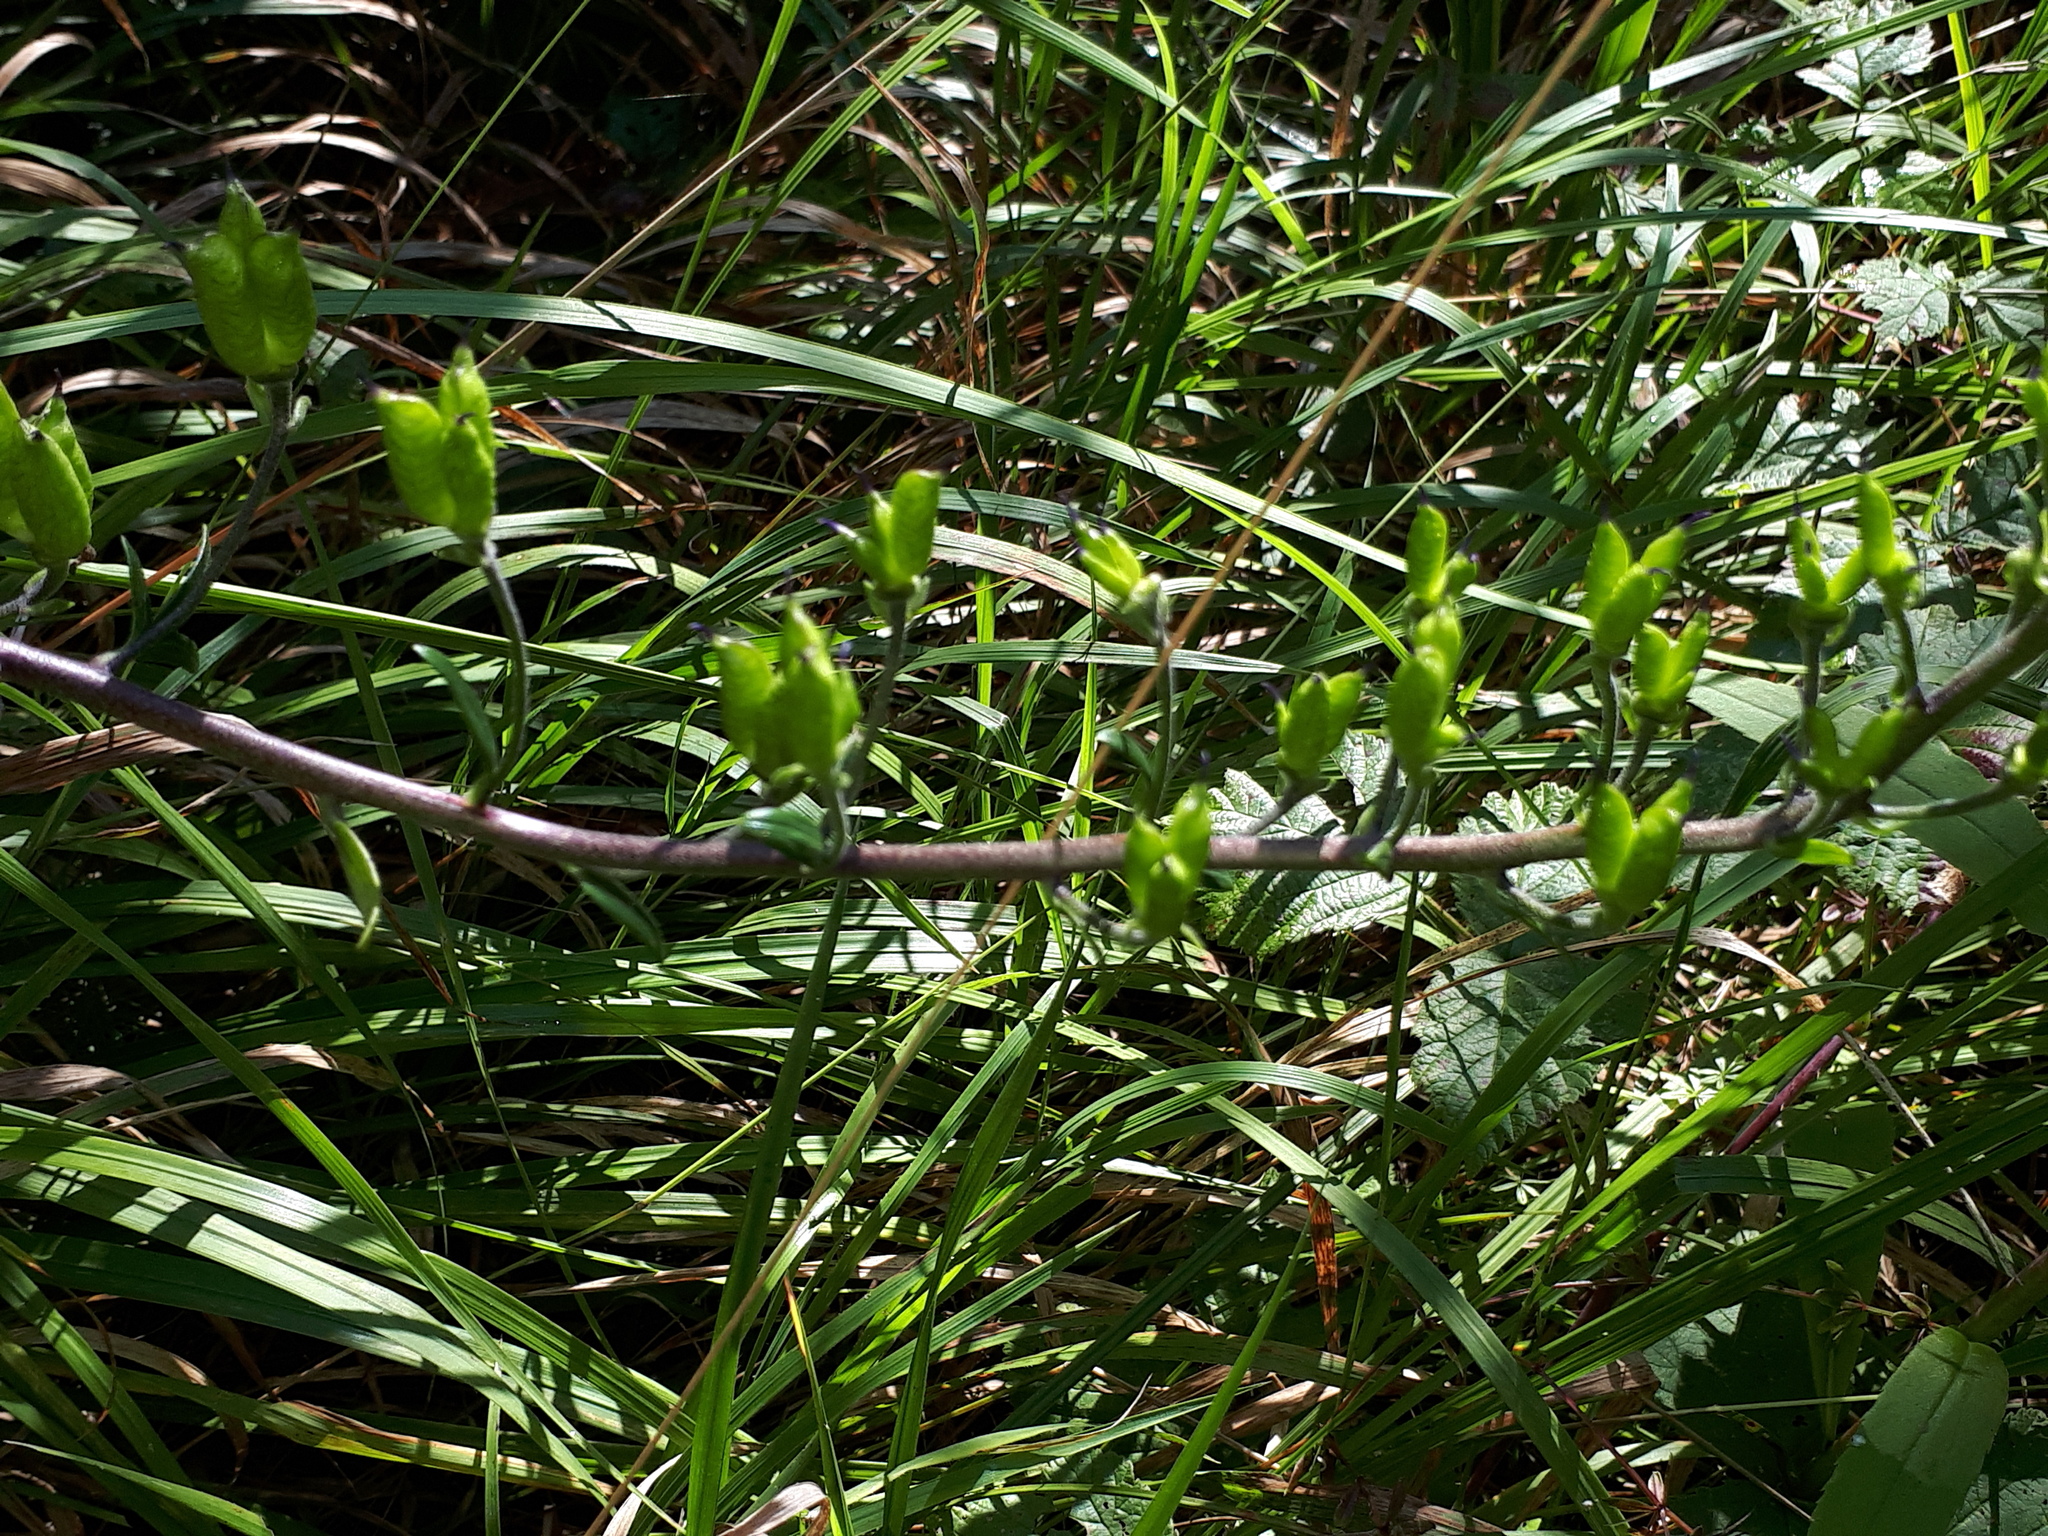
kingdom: Plantae
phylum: Tracheophyta
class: Magnoliopsida
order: Ranunculales
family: Ranunculaceae
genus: Aconitum
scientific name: Aconitum napellus
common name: Garden monkshood
